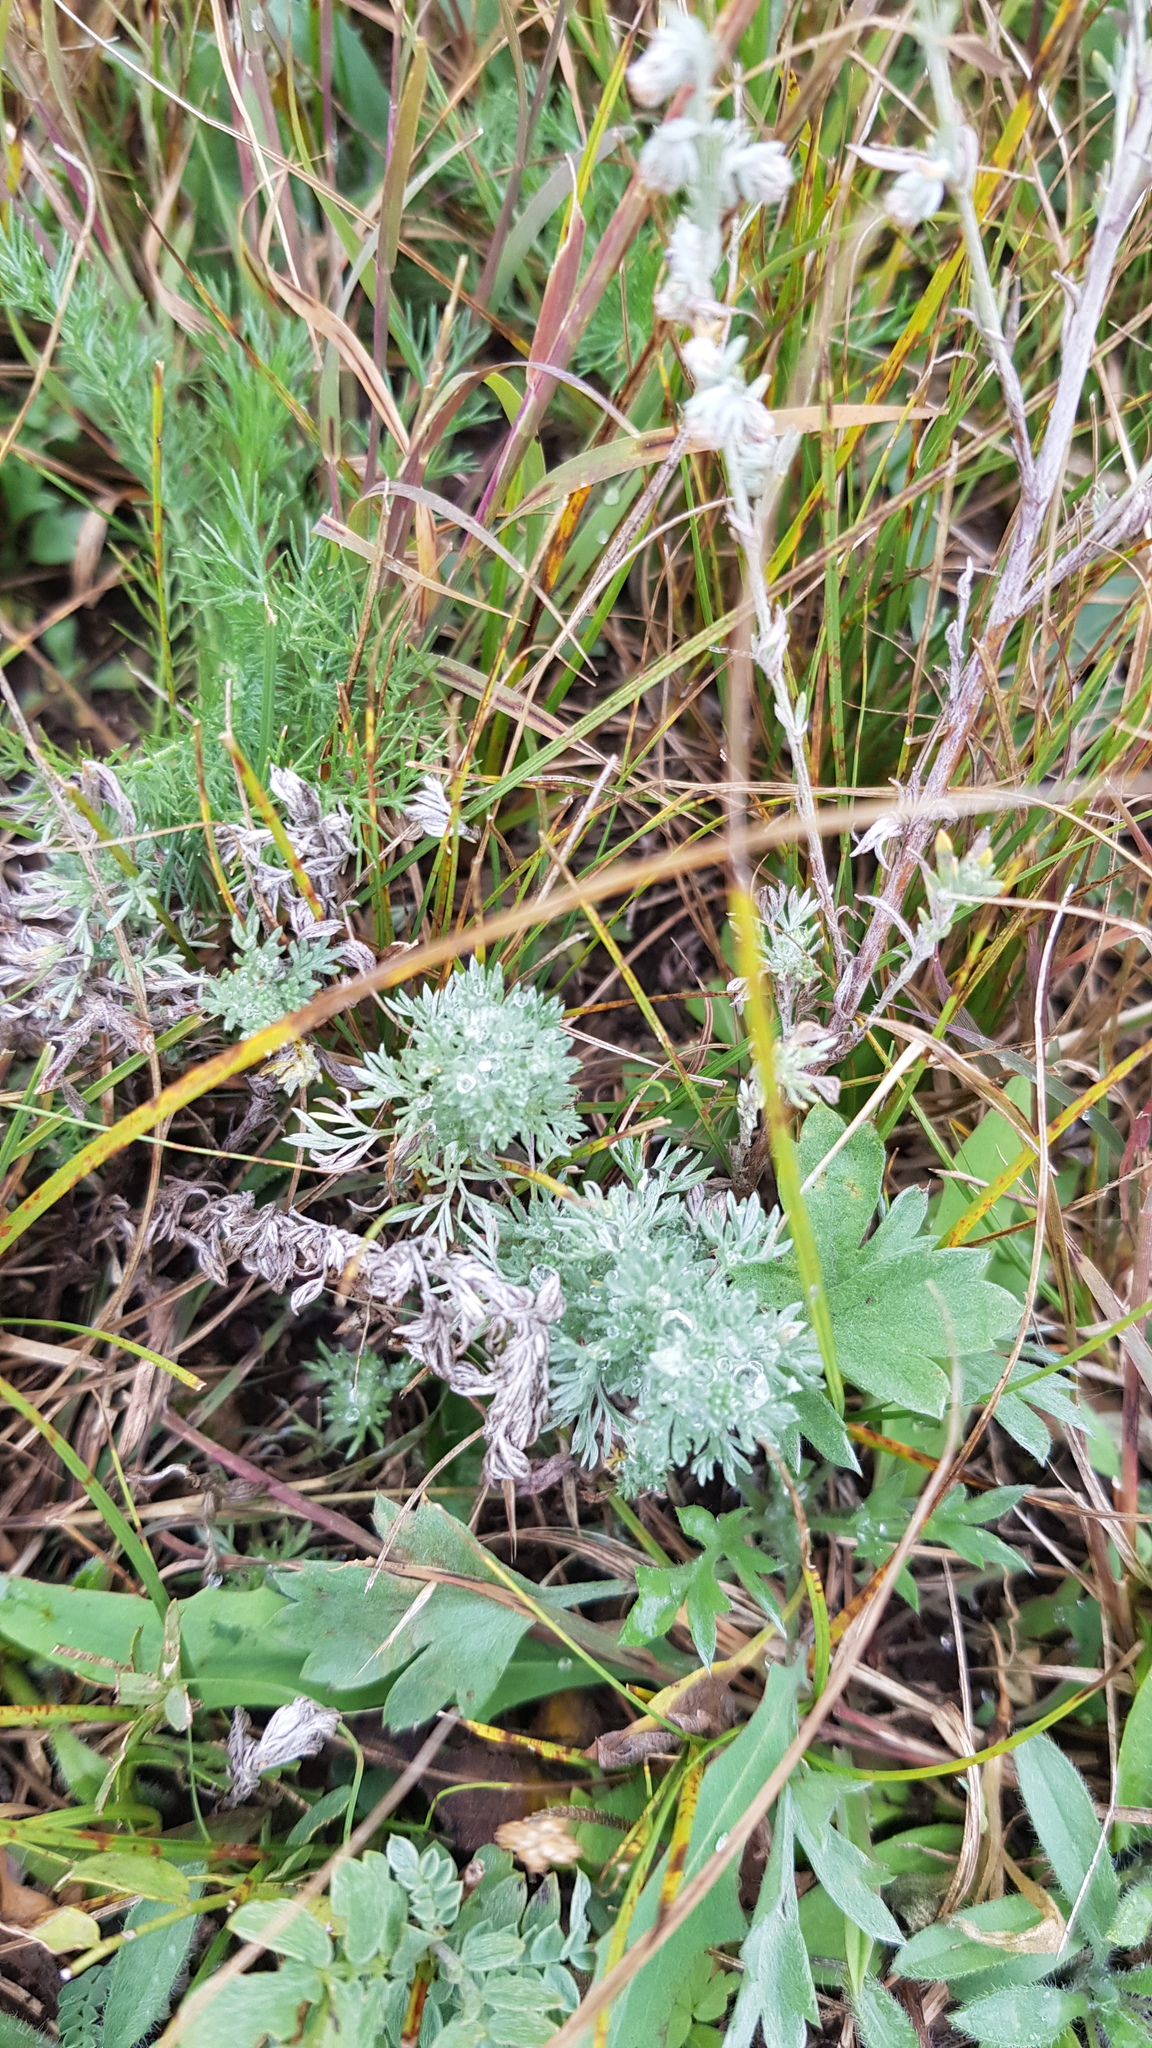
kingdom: Plantae
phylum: Tracheophyta
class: Magnoliopsida
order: Asterales
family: Asteraceae
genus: Artemisia
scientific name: Artemisia frigida
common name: Prairie sagewort
